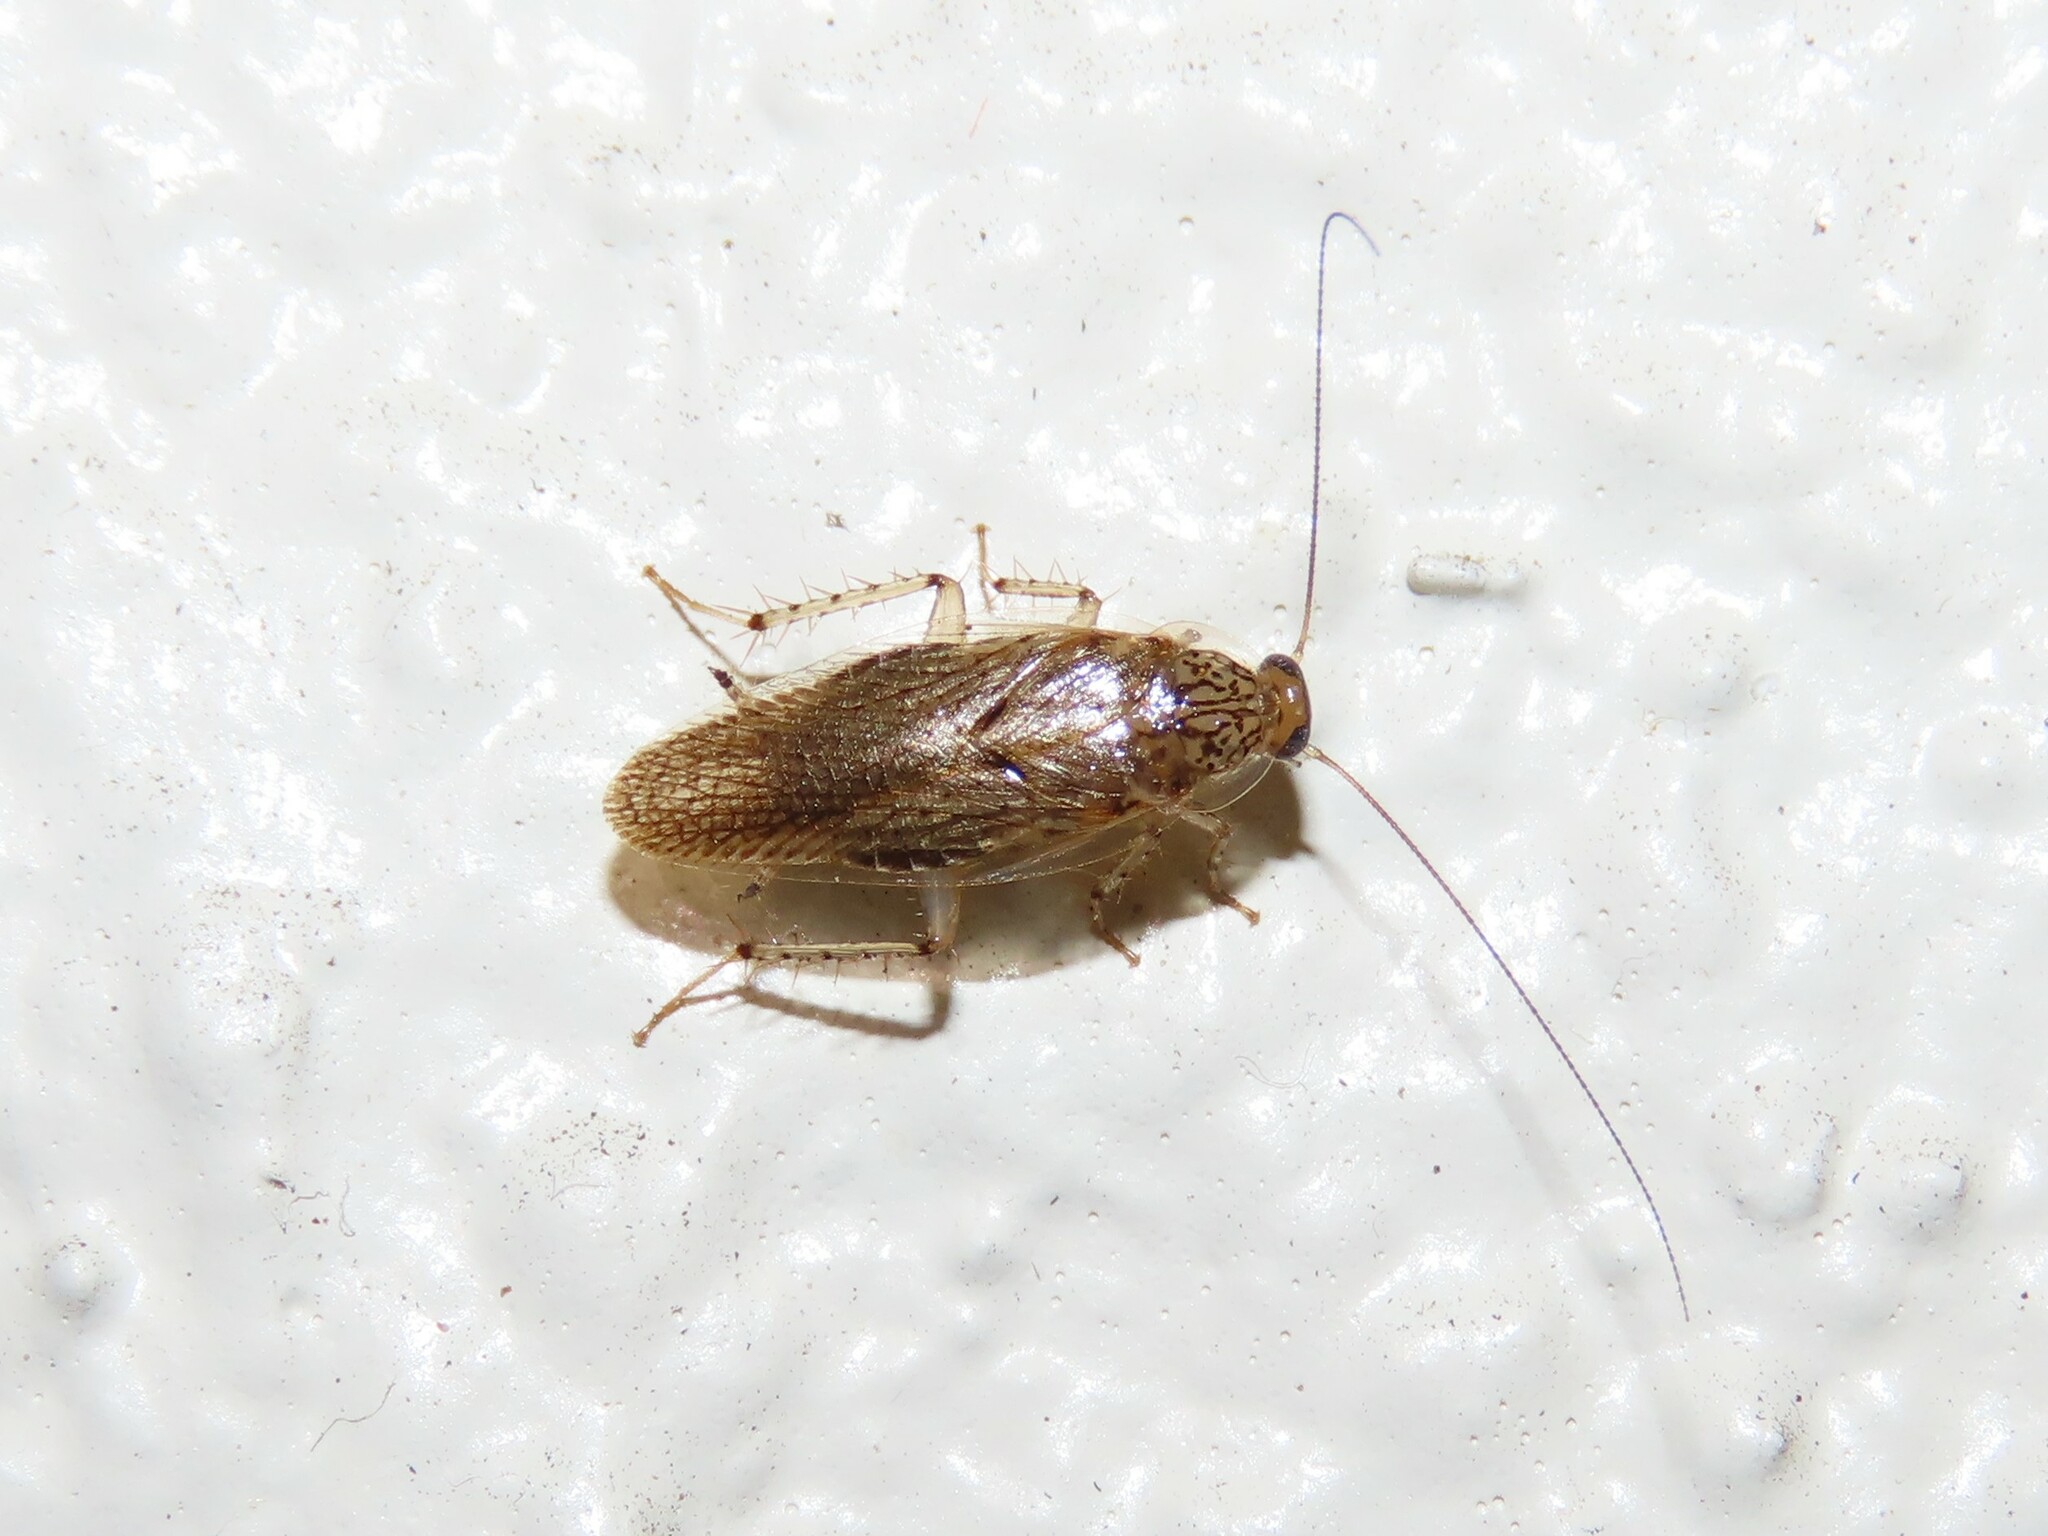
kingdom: Animalia
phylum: Arthropoda
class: Insecta
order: Blattodea
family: Ectobiidae
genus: Neoblattella
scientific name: Neoblattella detersa
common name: Wood cockroach
